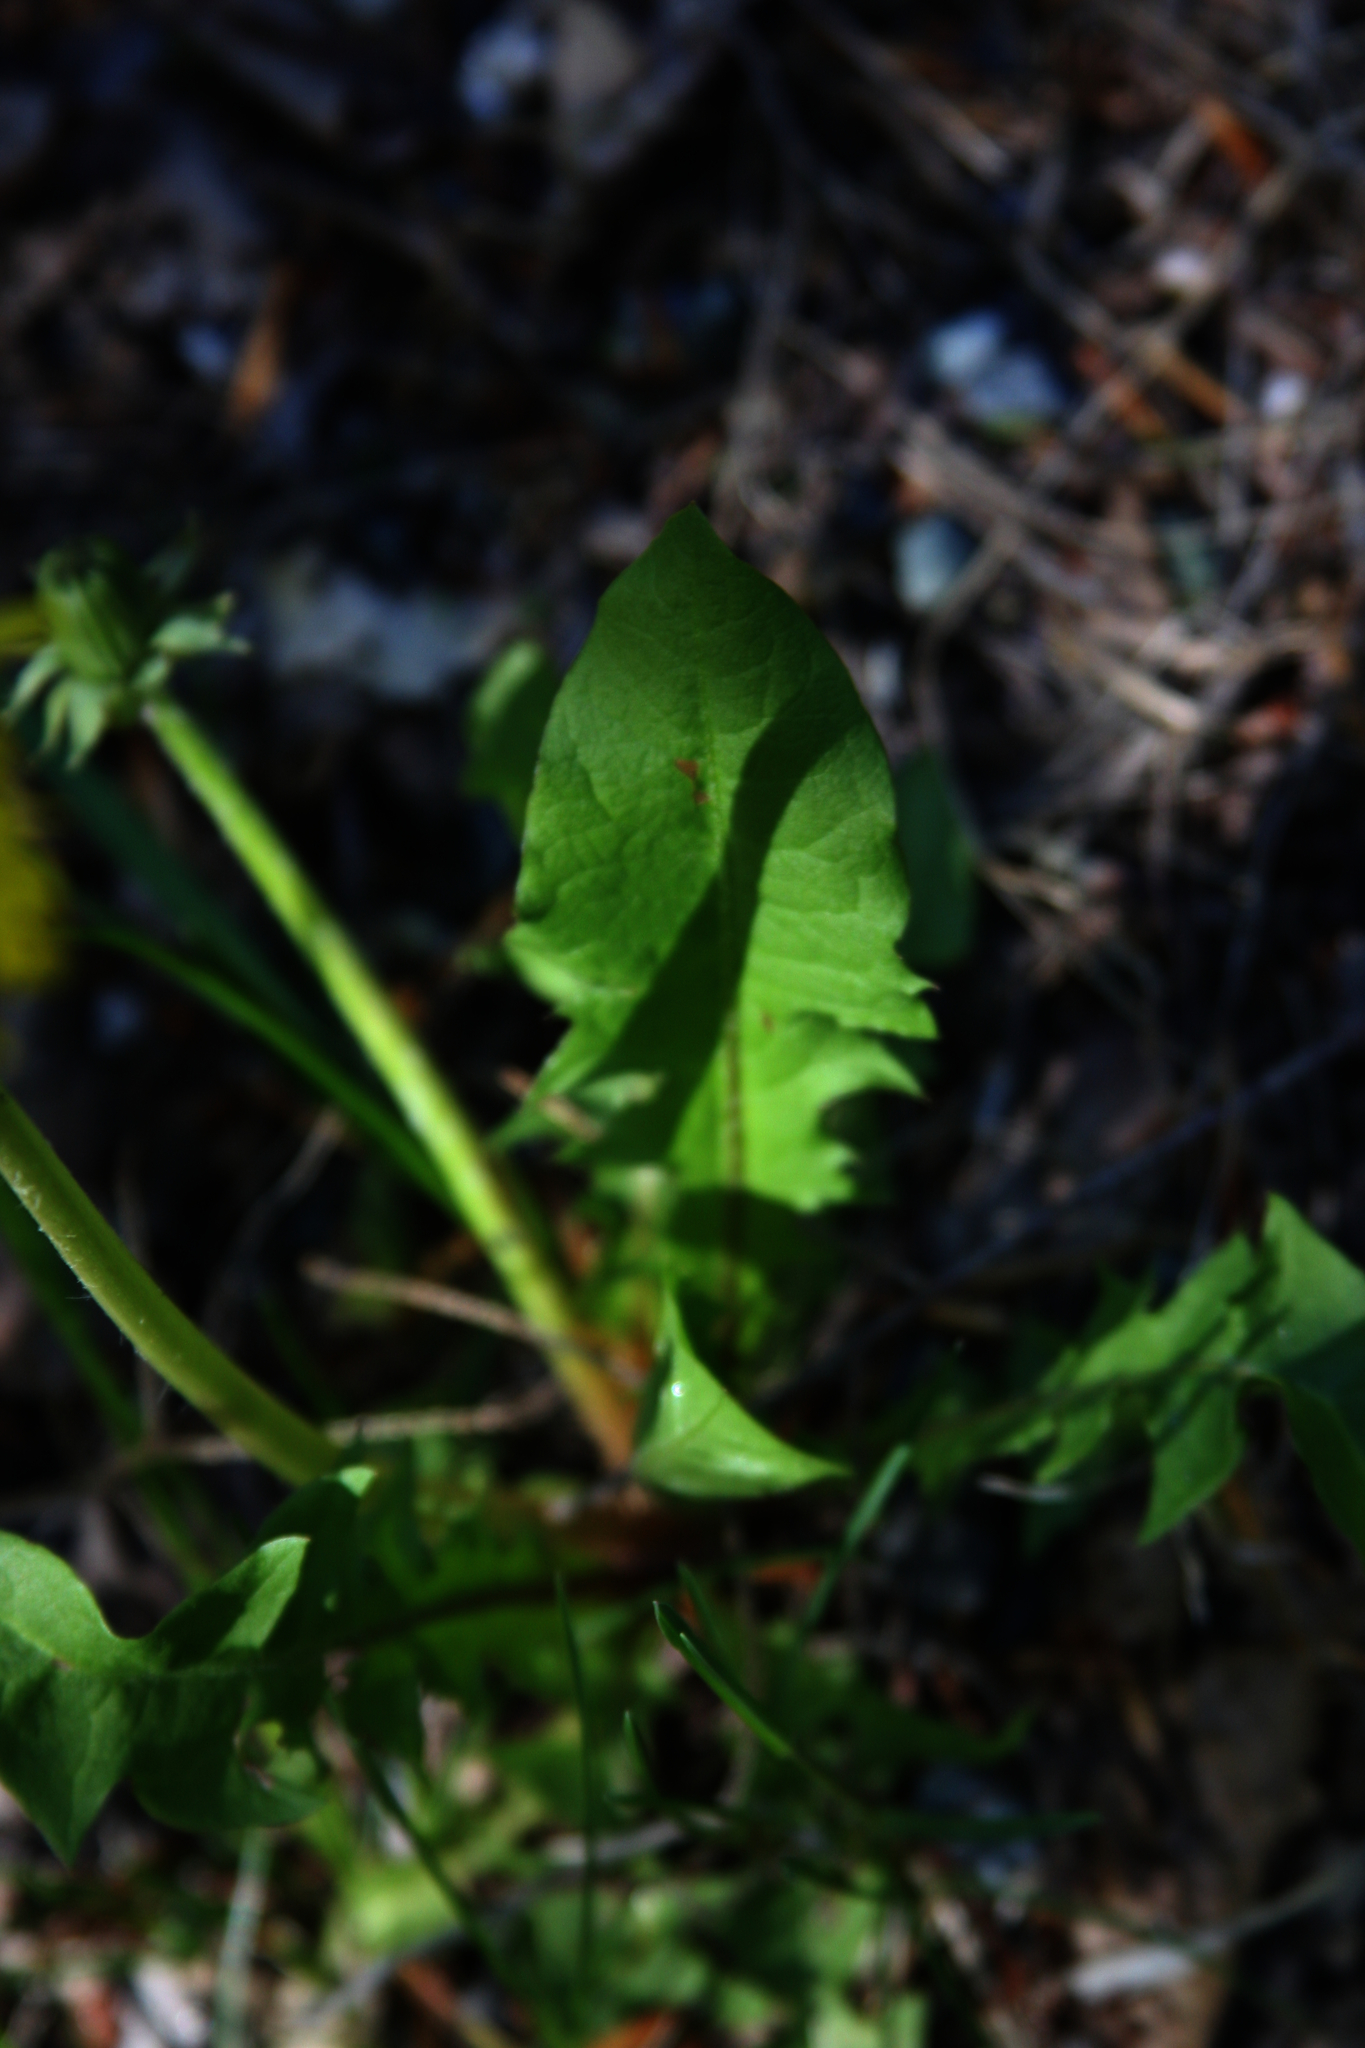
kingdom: Plantae
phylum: Tracheophyta
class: Magnoliopsida
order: Asterales
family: Asteraceae
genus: Taraxacum
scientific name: Taraxacum officinale
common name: Common dandelion
